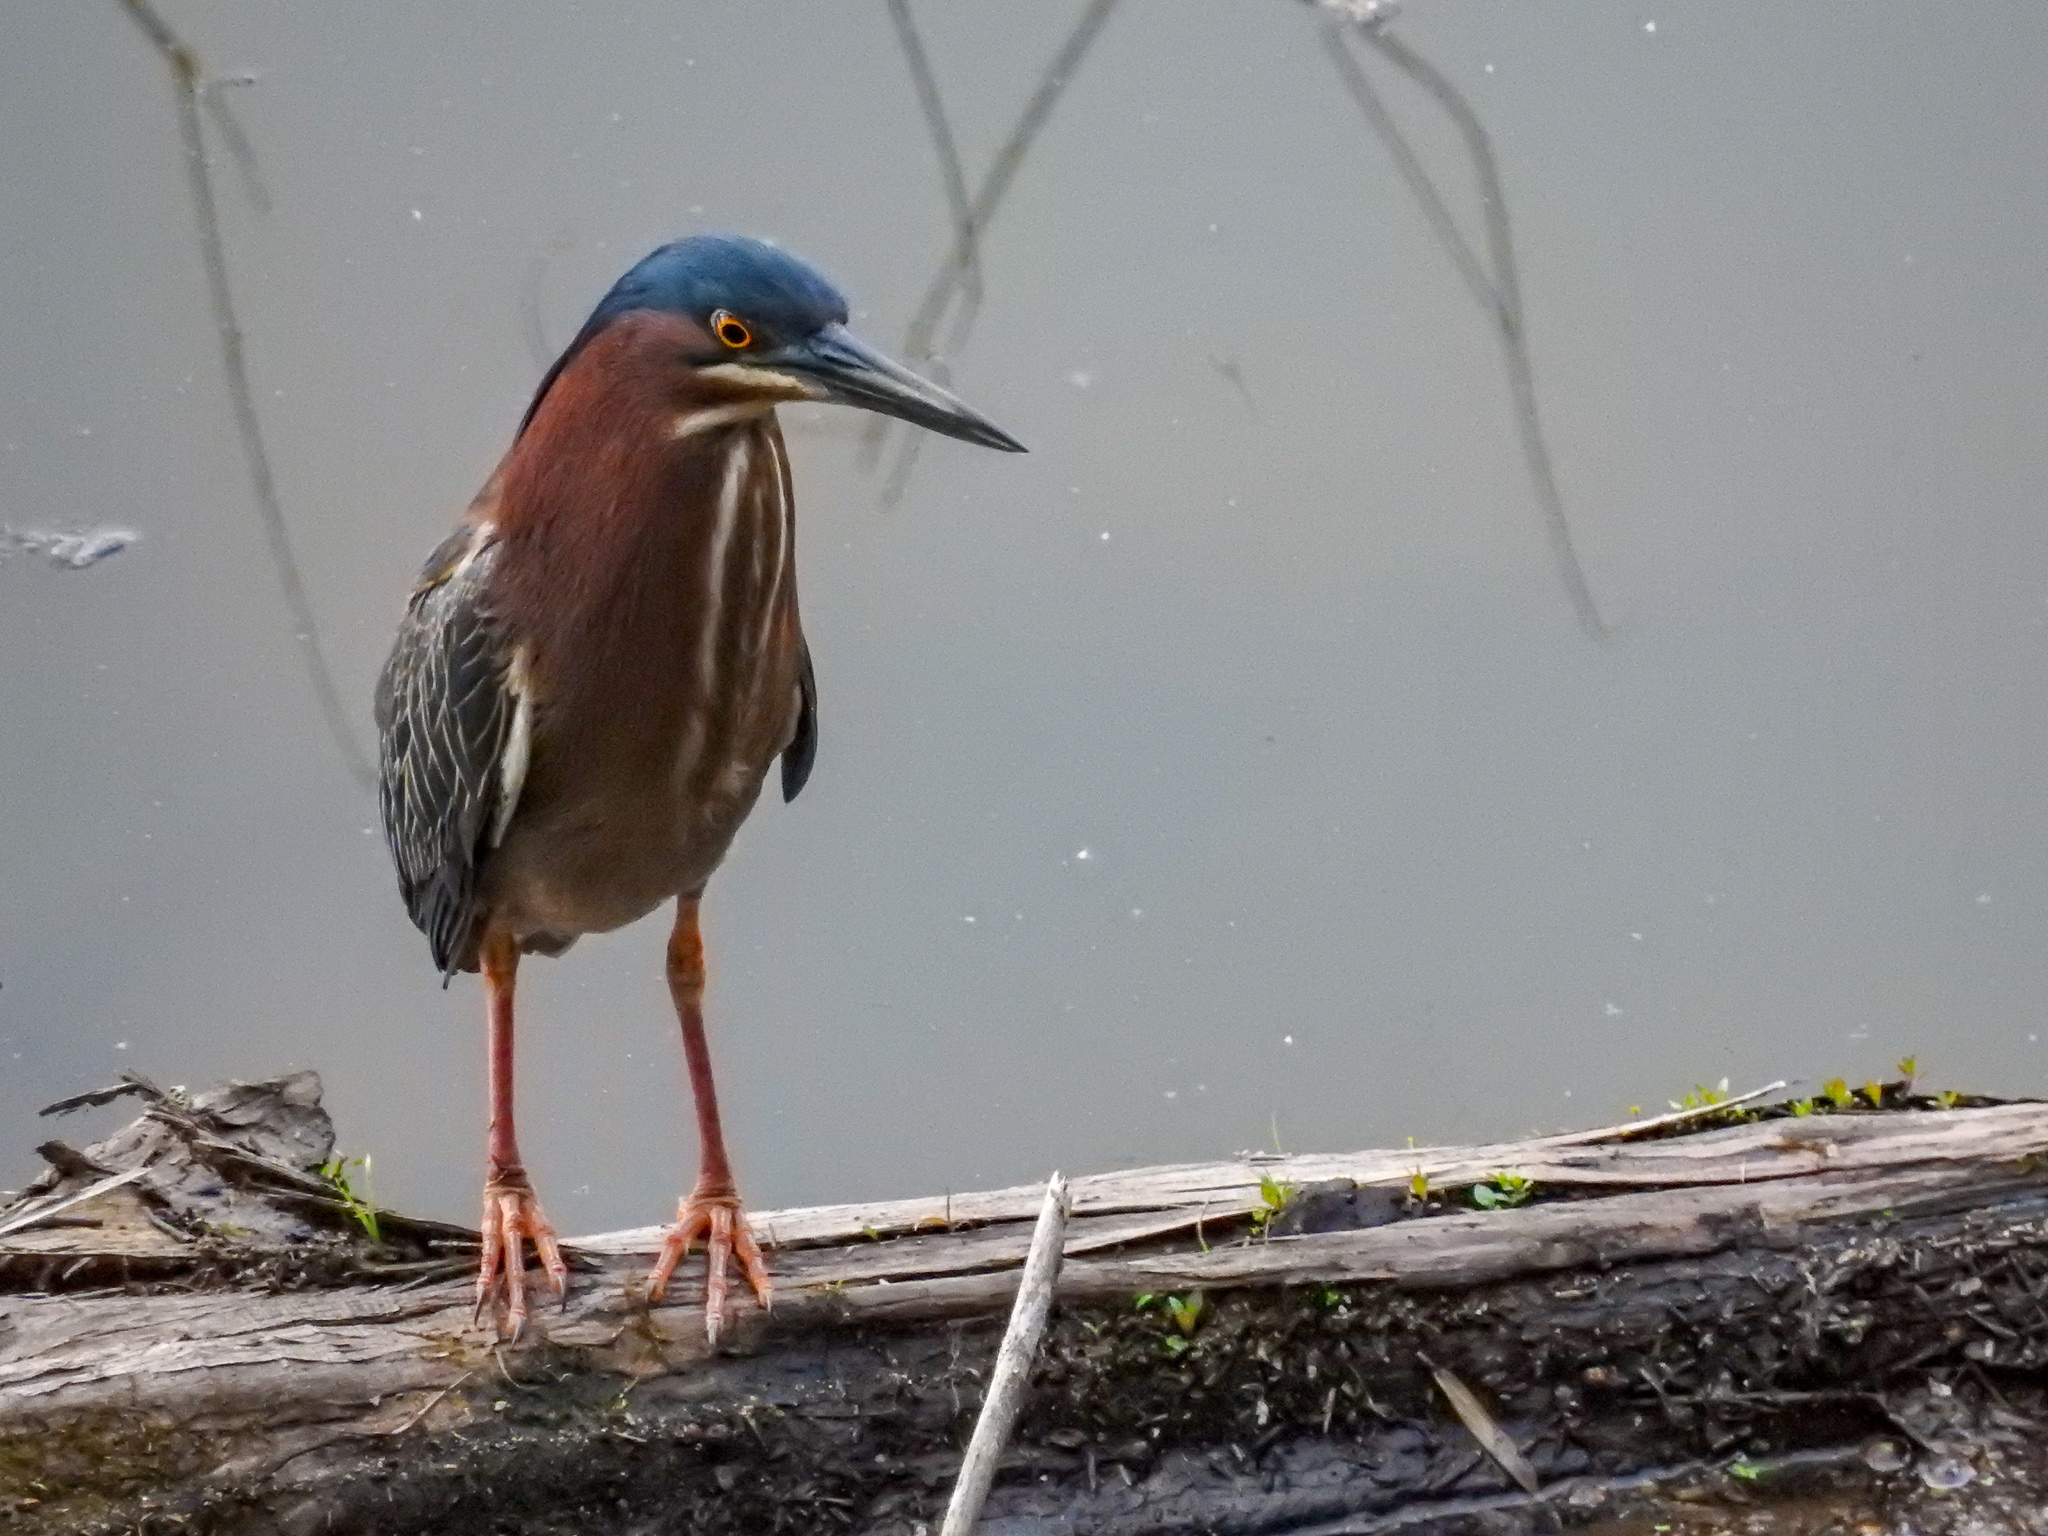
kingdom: Animalia
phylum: Chordata
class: Aves
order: Pelecaniformes
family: Ardeidae
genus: Butorides
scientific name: Butorides virescens
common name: Green heron
